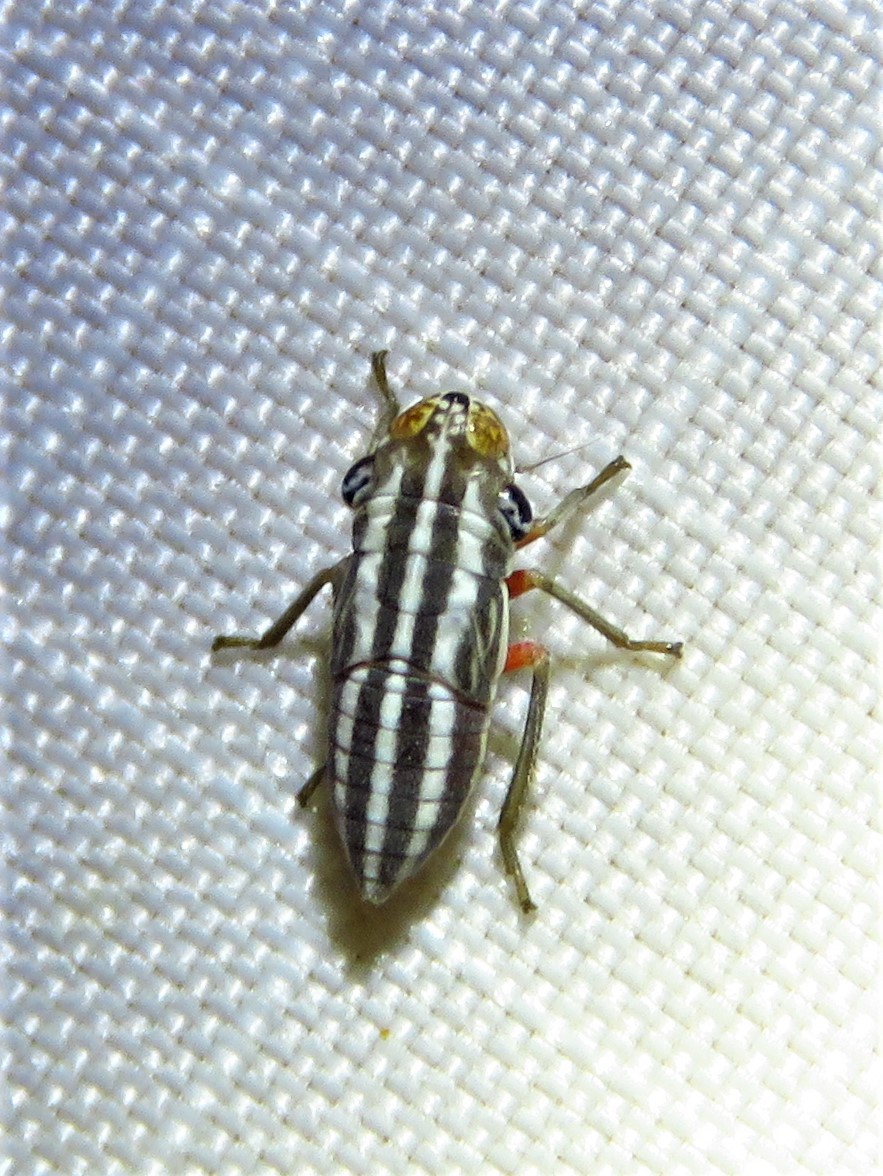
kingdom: Animalia
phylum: Arthropoda
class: Insecta
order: Hemiptera
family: Cicadellidae
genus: Cuerna
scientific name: Cuerna costalis
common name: Lateral-lined sharpshooter
